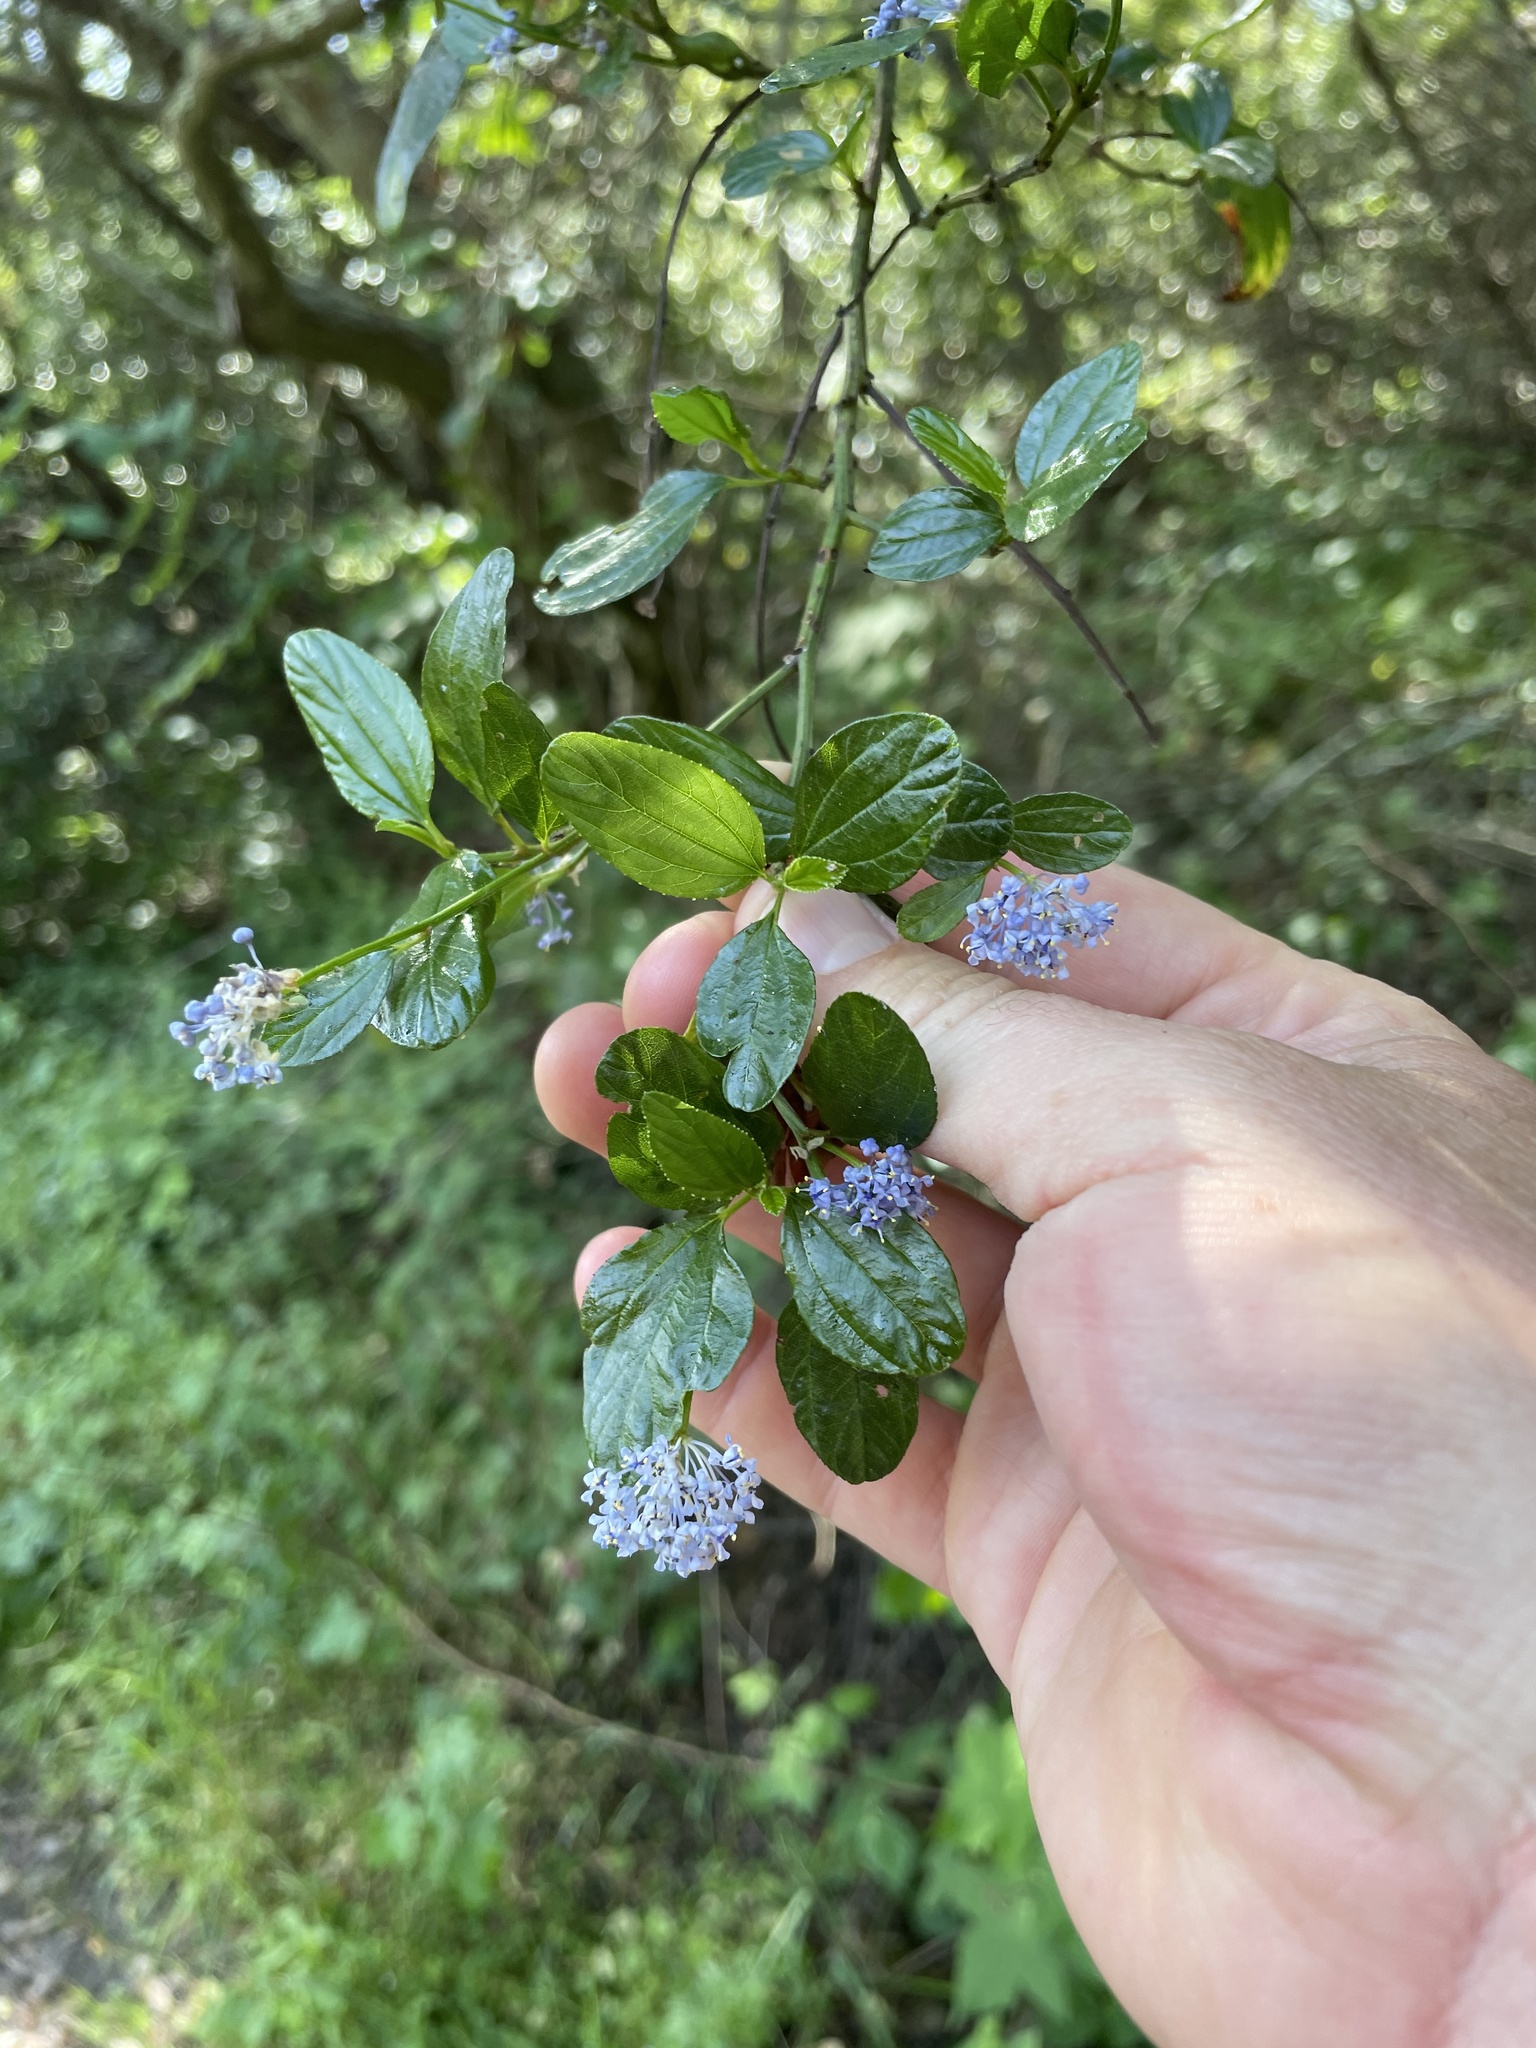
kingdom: Plantae
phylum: Tracheophyta
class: Magnoliopsida
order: Rosales
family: Rhamnaceae
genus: Ceanothus
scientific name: Ceanothus thyrsiflorus
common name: California-lilac
